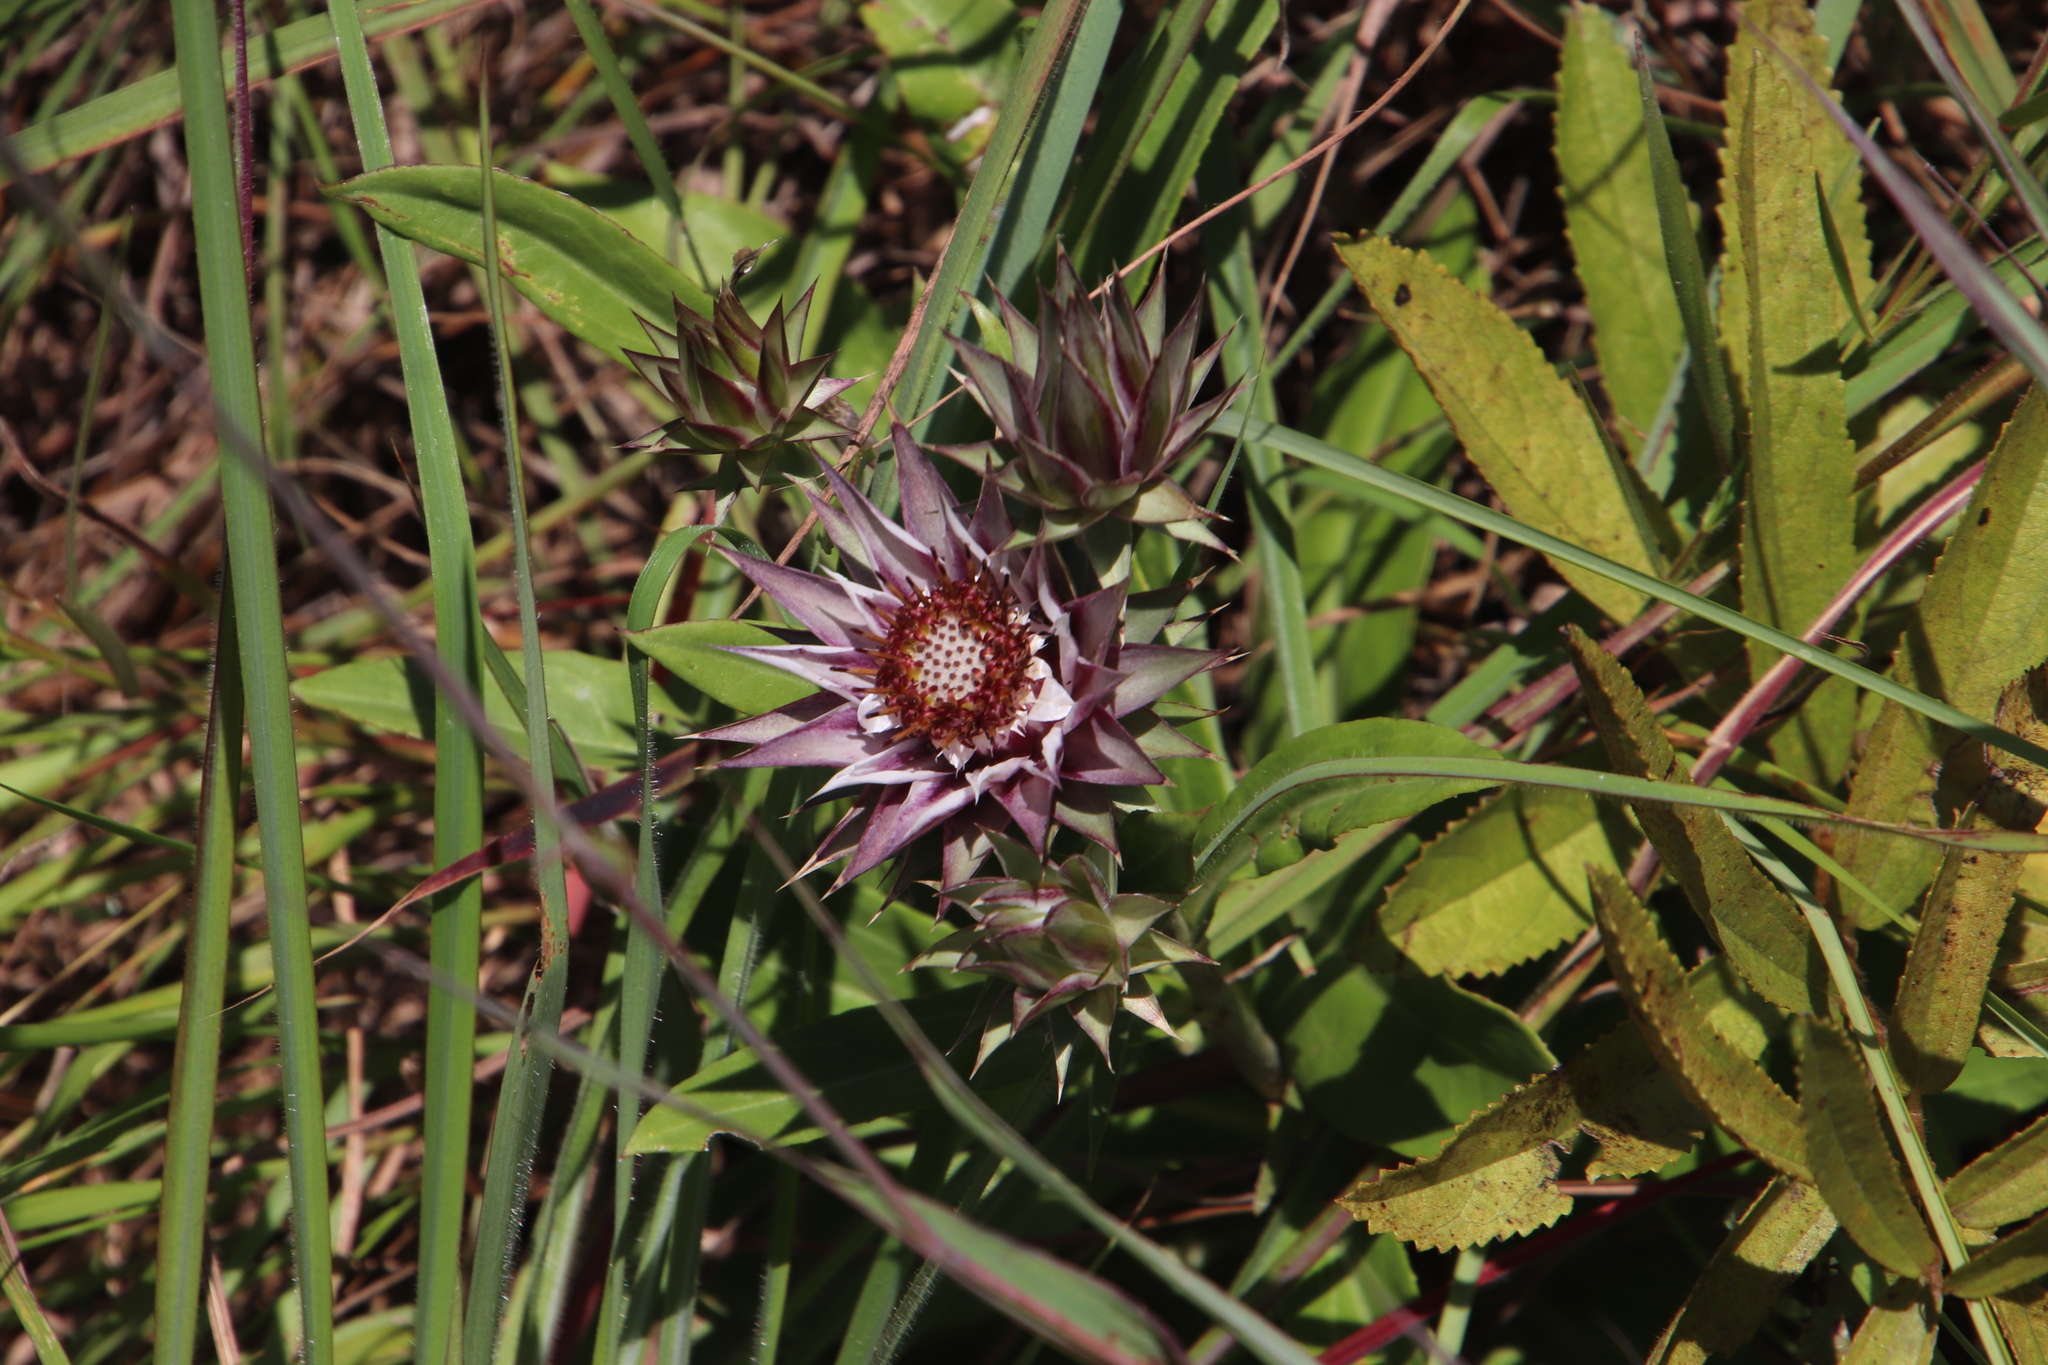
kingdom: Plantae
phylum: Tracheophyta
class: Magnoliopsida
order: Asterales
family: Asteraceae
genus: Macledium
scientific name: Macledium zeyheri
